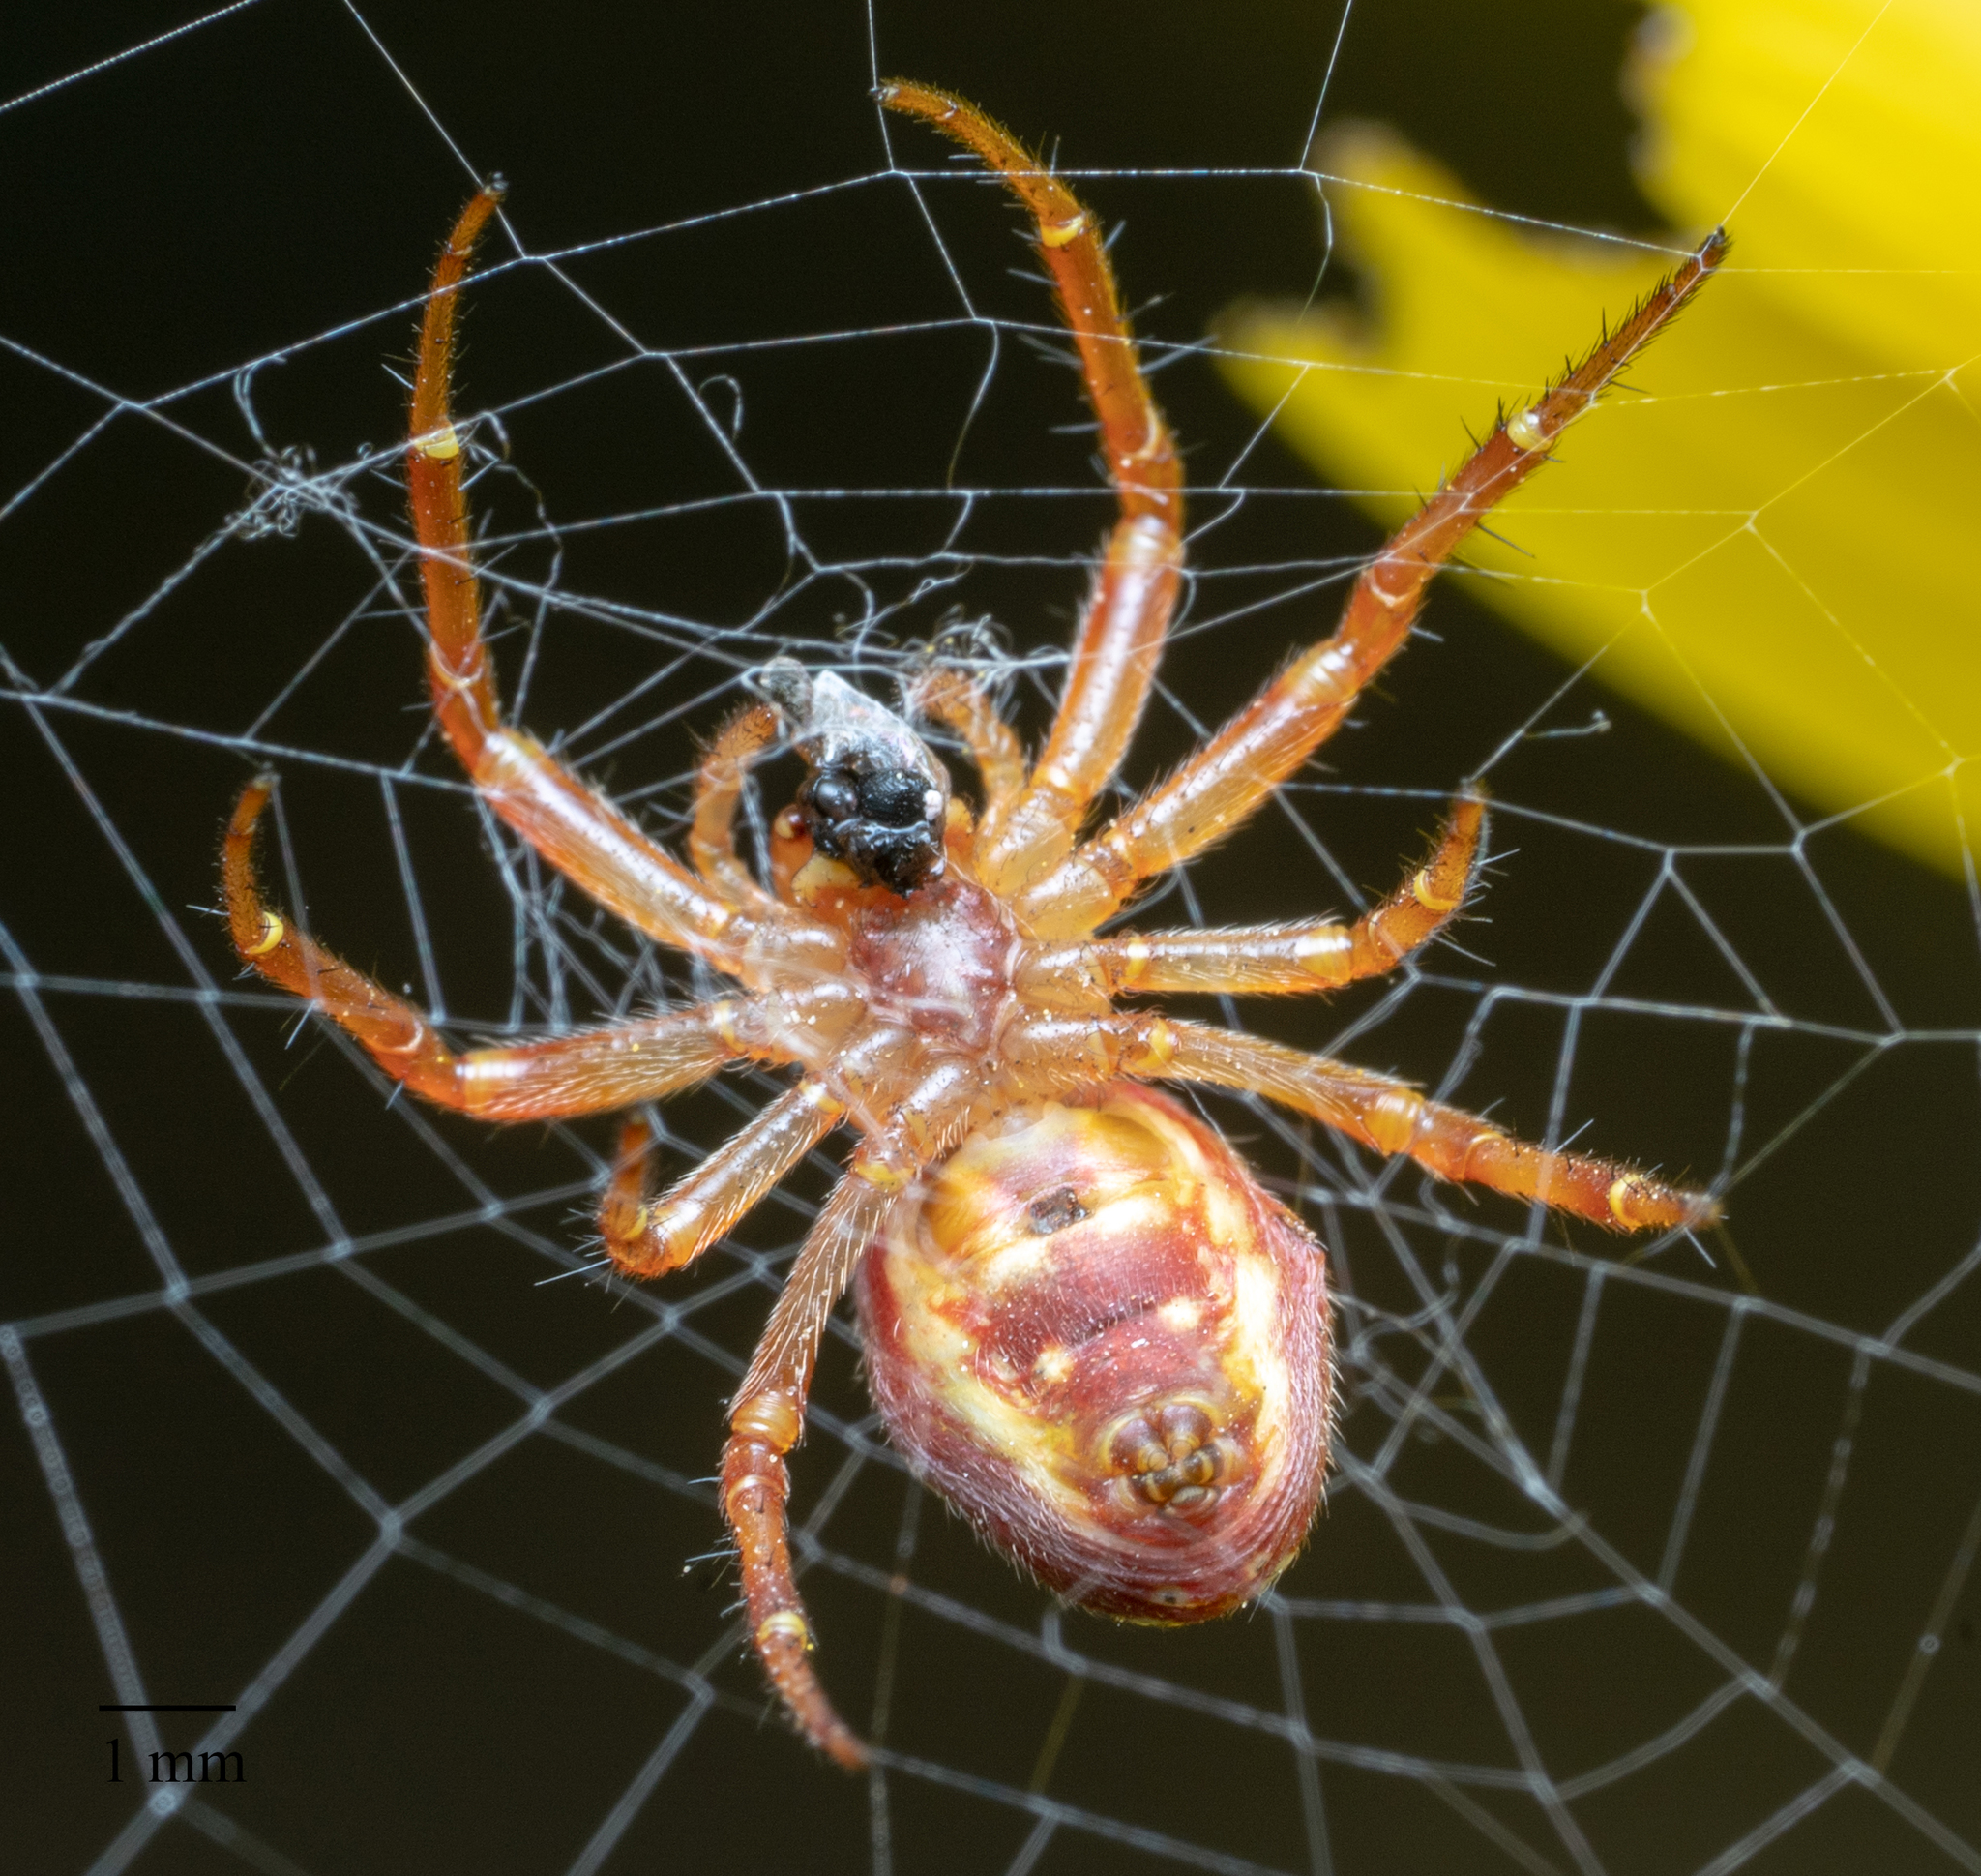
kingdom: Animalia
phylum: Arthropoda
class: Arachnida
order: Araneae
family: Araneidae
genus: Araniella
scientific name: Araniella displicata
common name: Sixspotted orb weaver
